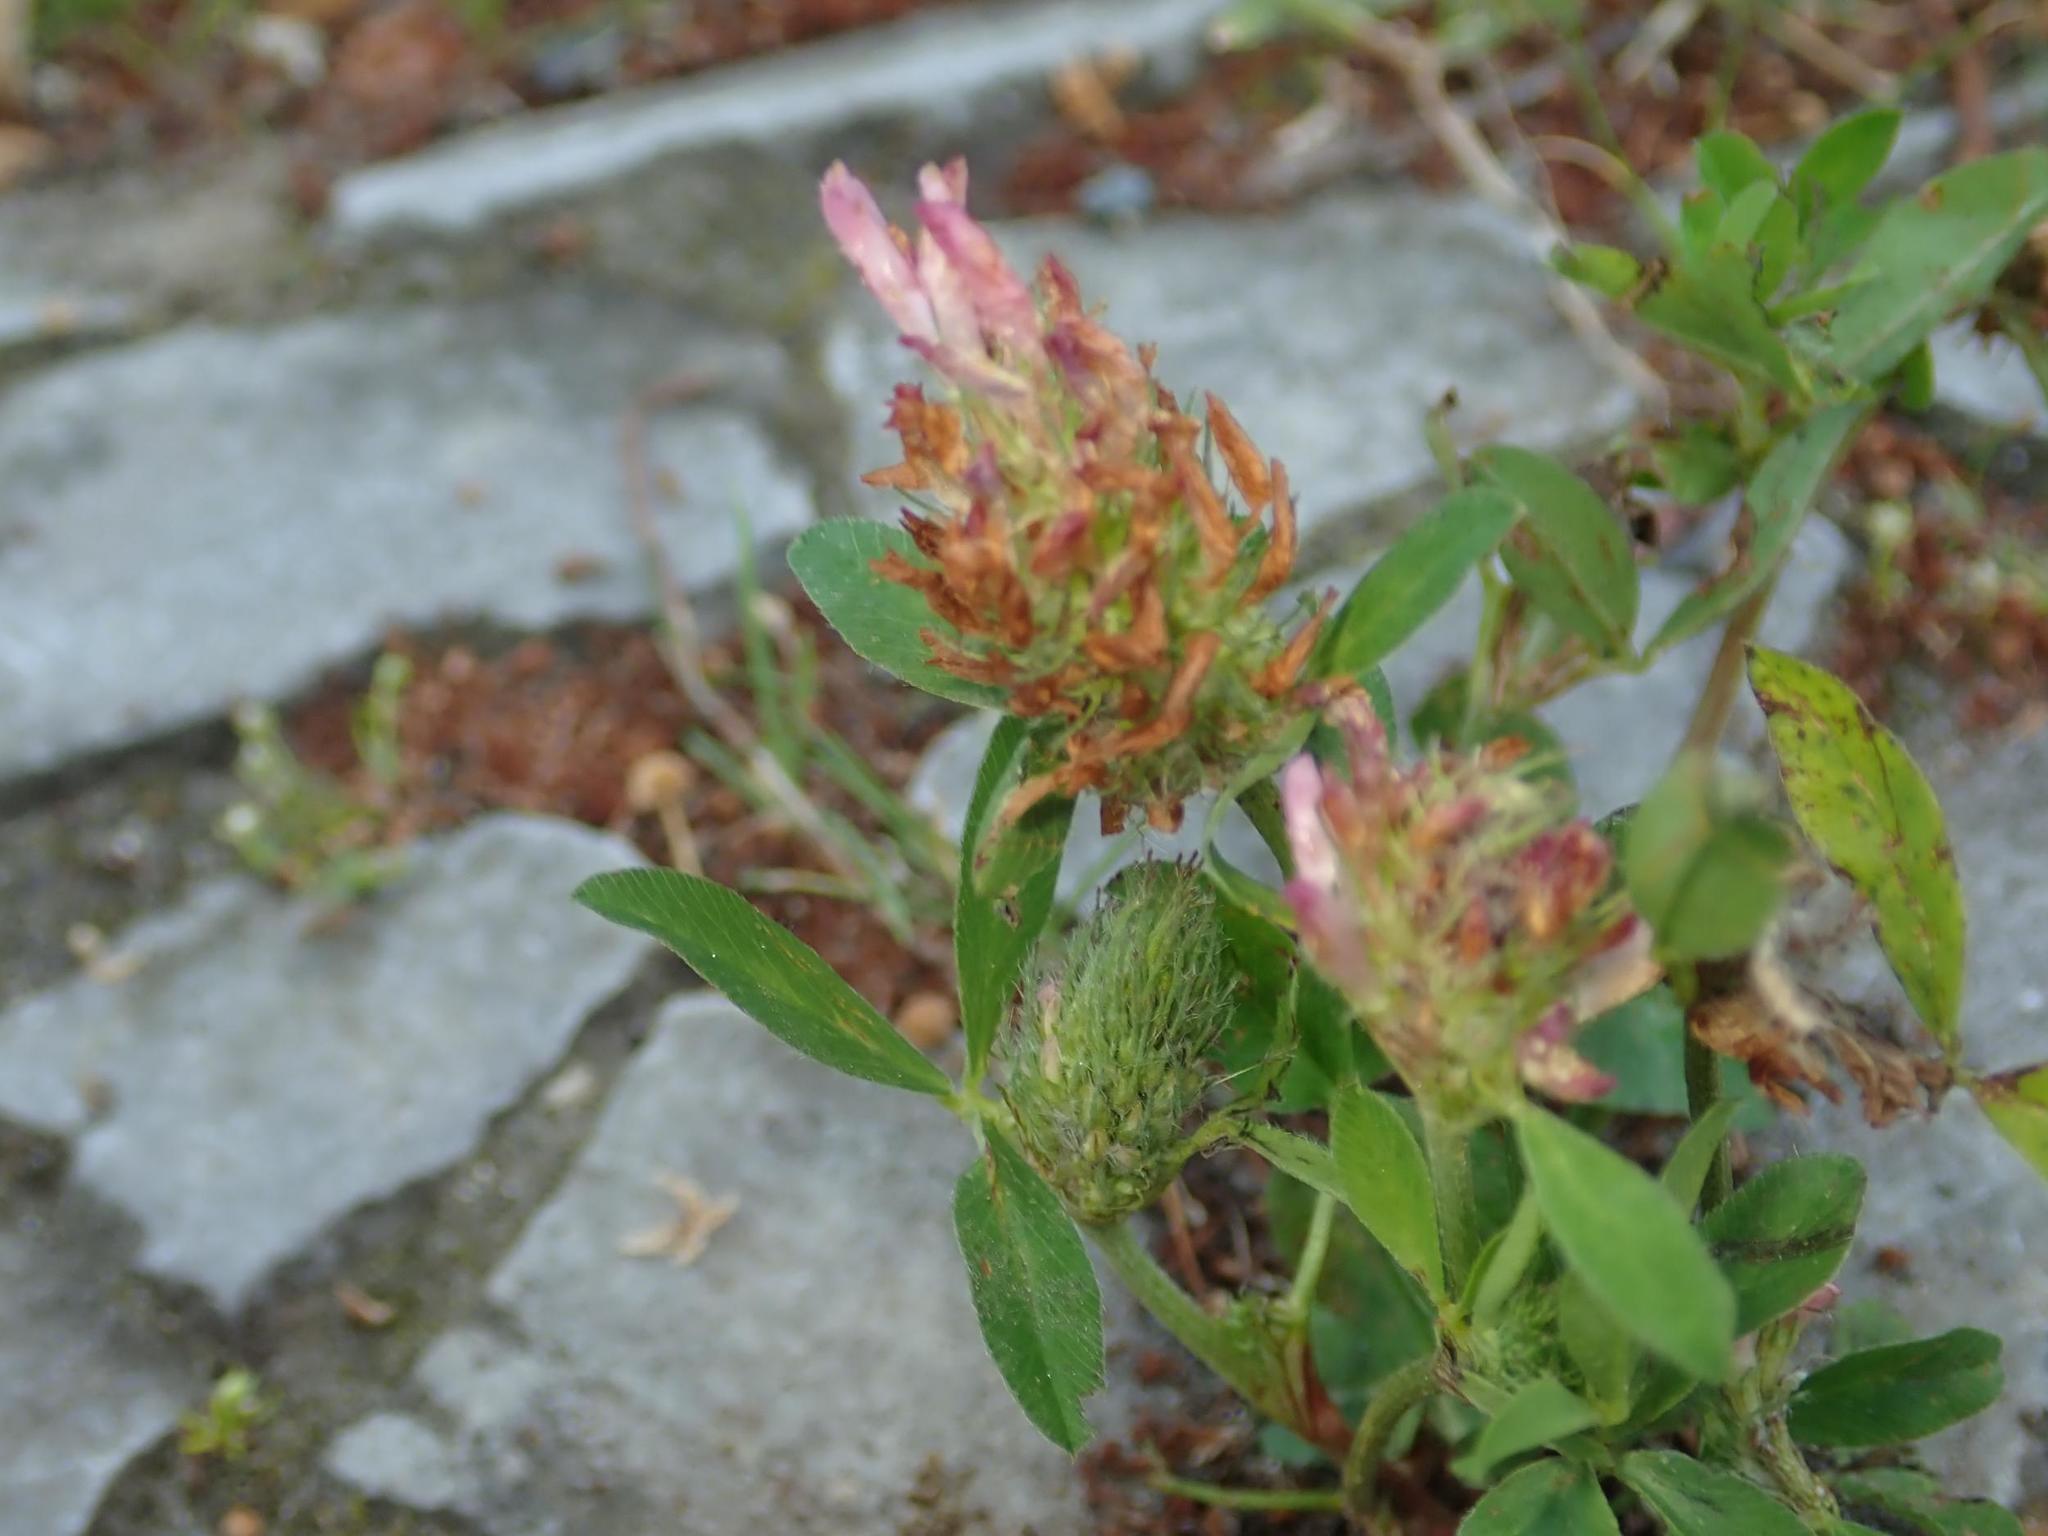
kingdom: Plantae
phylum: Tracheophyta
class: Magnoliopsida
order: Fabales
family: Fabaceae
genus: Trifolium
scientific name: Trifolium pratense
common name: Red clover
